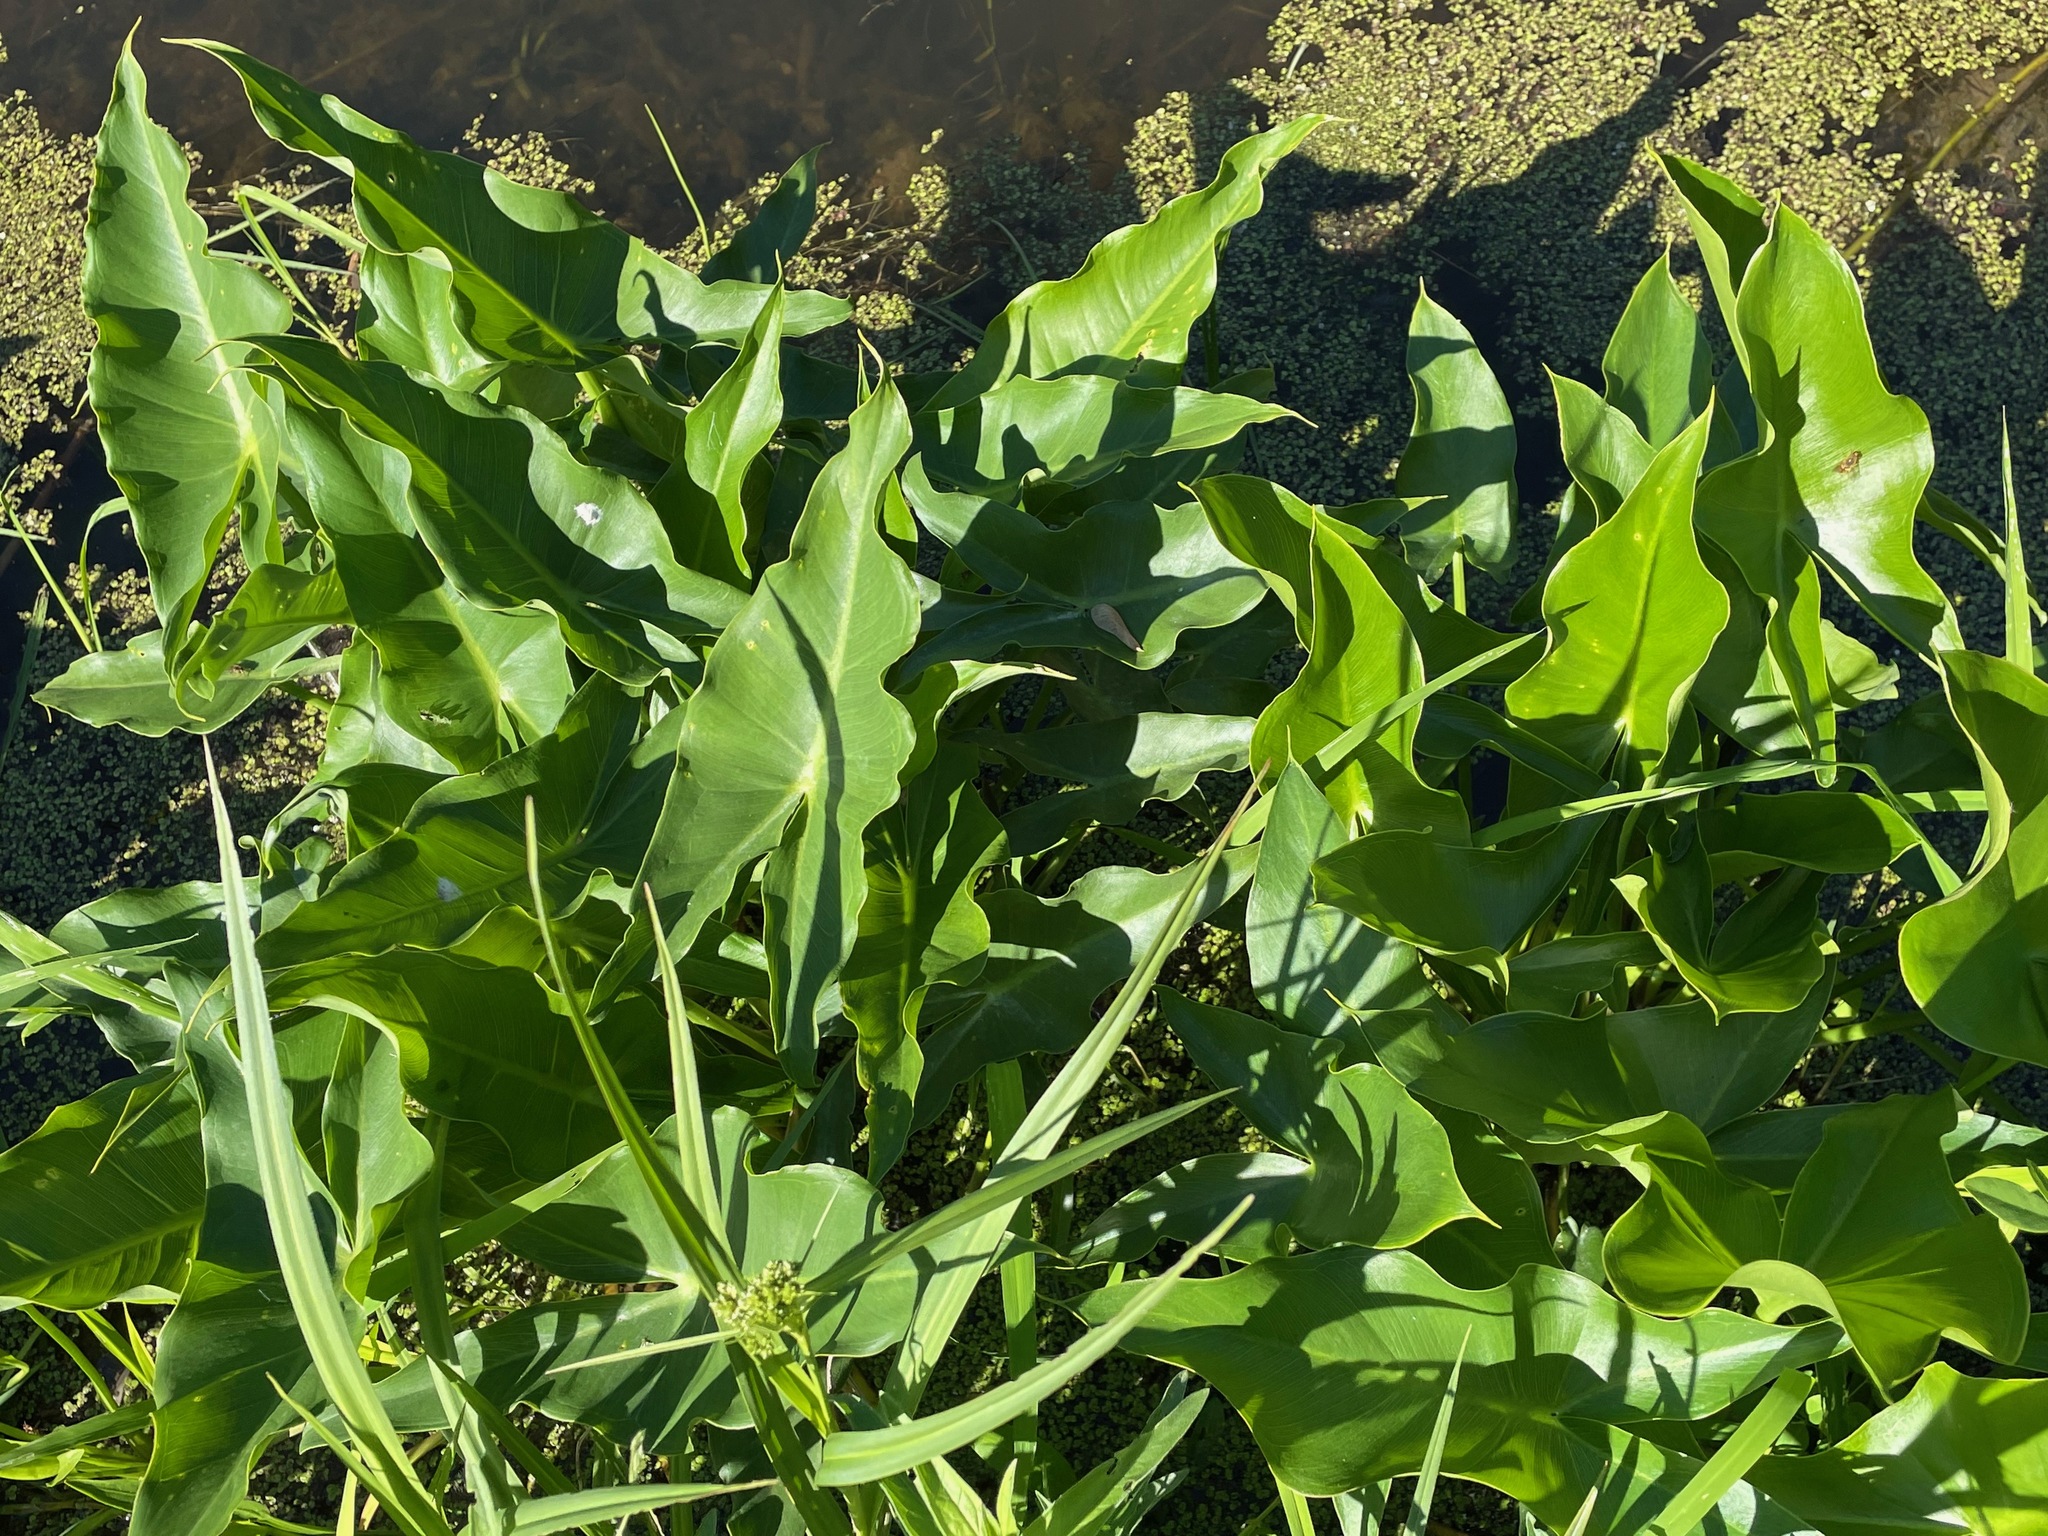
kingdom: Plantae
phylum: Tracheophyta
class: Liliopsida
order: Alismatales
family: Araceae
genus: Peltandra
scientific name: Peltandra virginica
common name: Arrow arum
